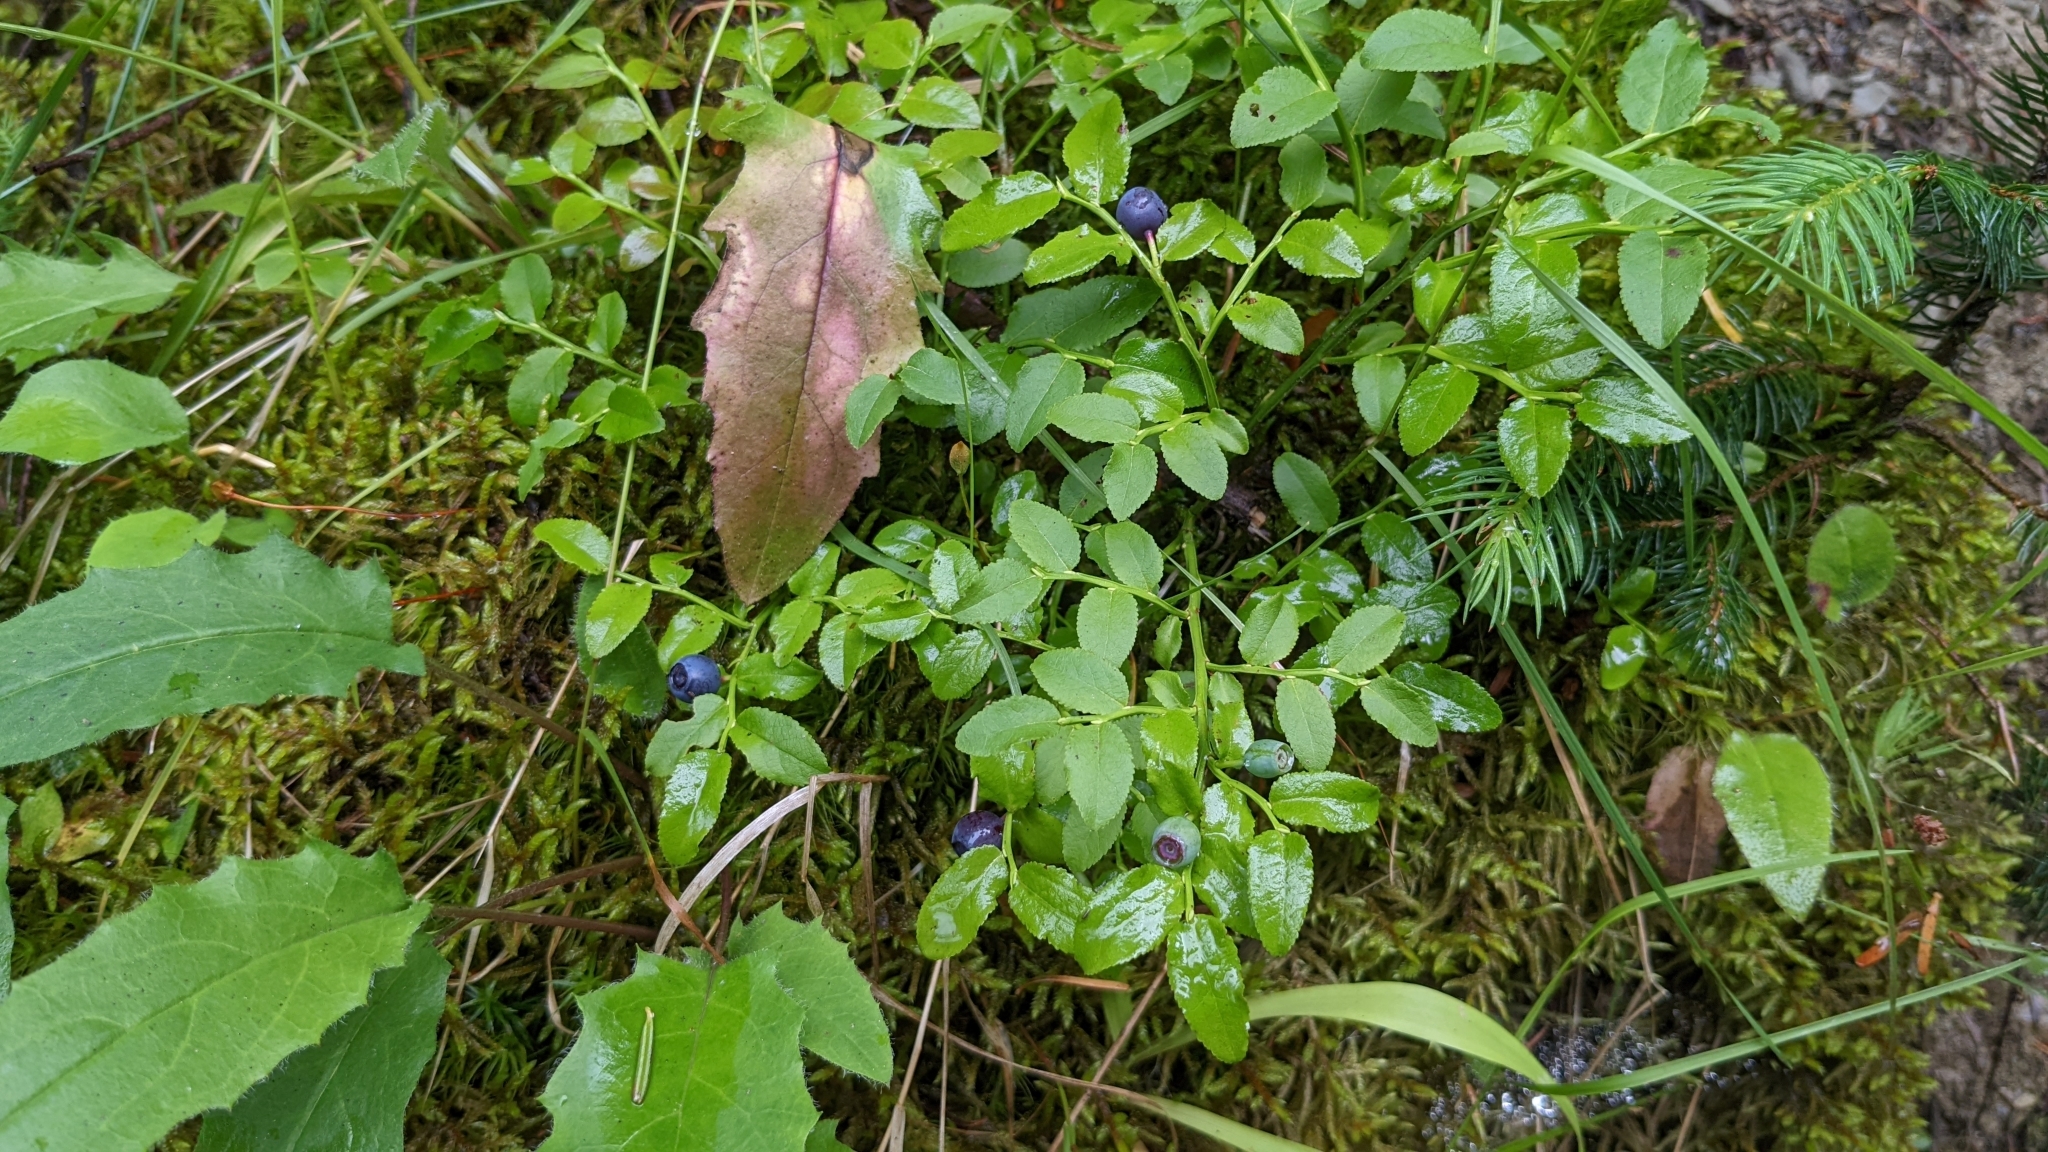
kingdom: Plantae
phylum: Tracheophyta
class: Magnoliopsida
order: Ericales
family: Ericaceae
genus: Vaccinium
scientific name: Vaccinium myrtillus
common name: Bilberry
